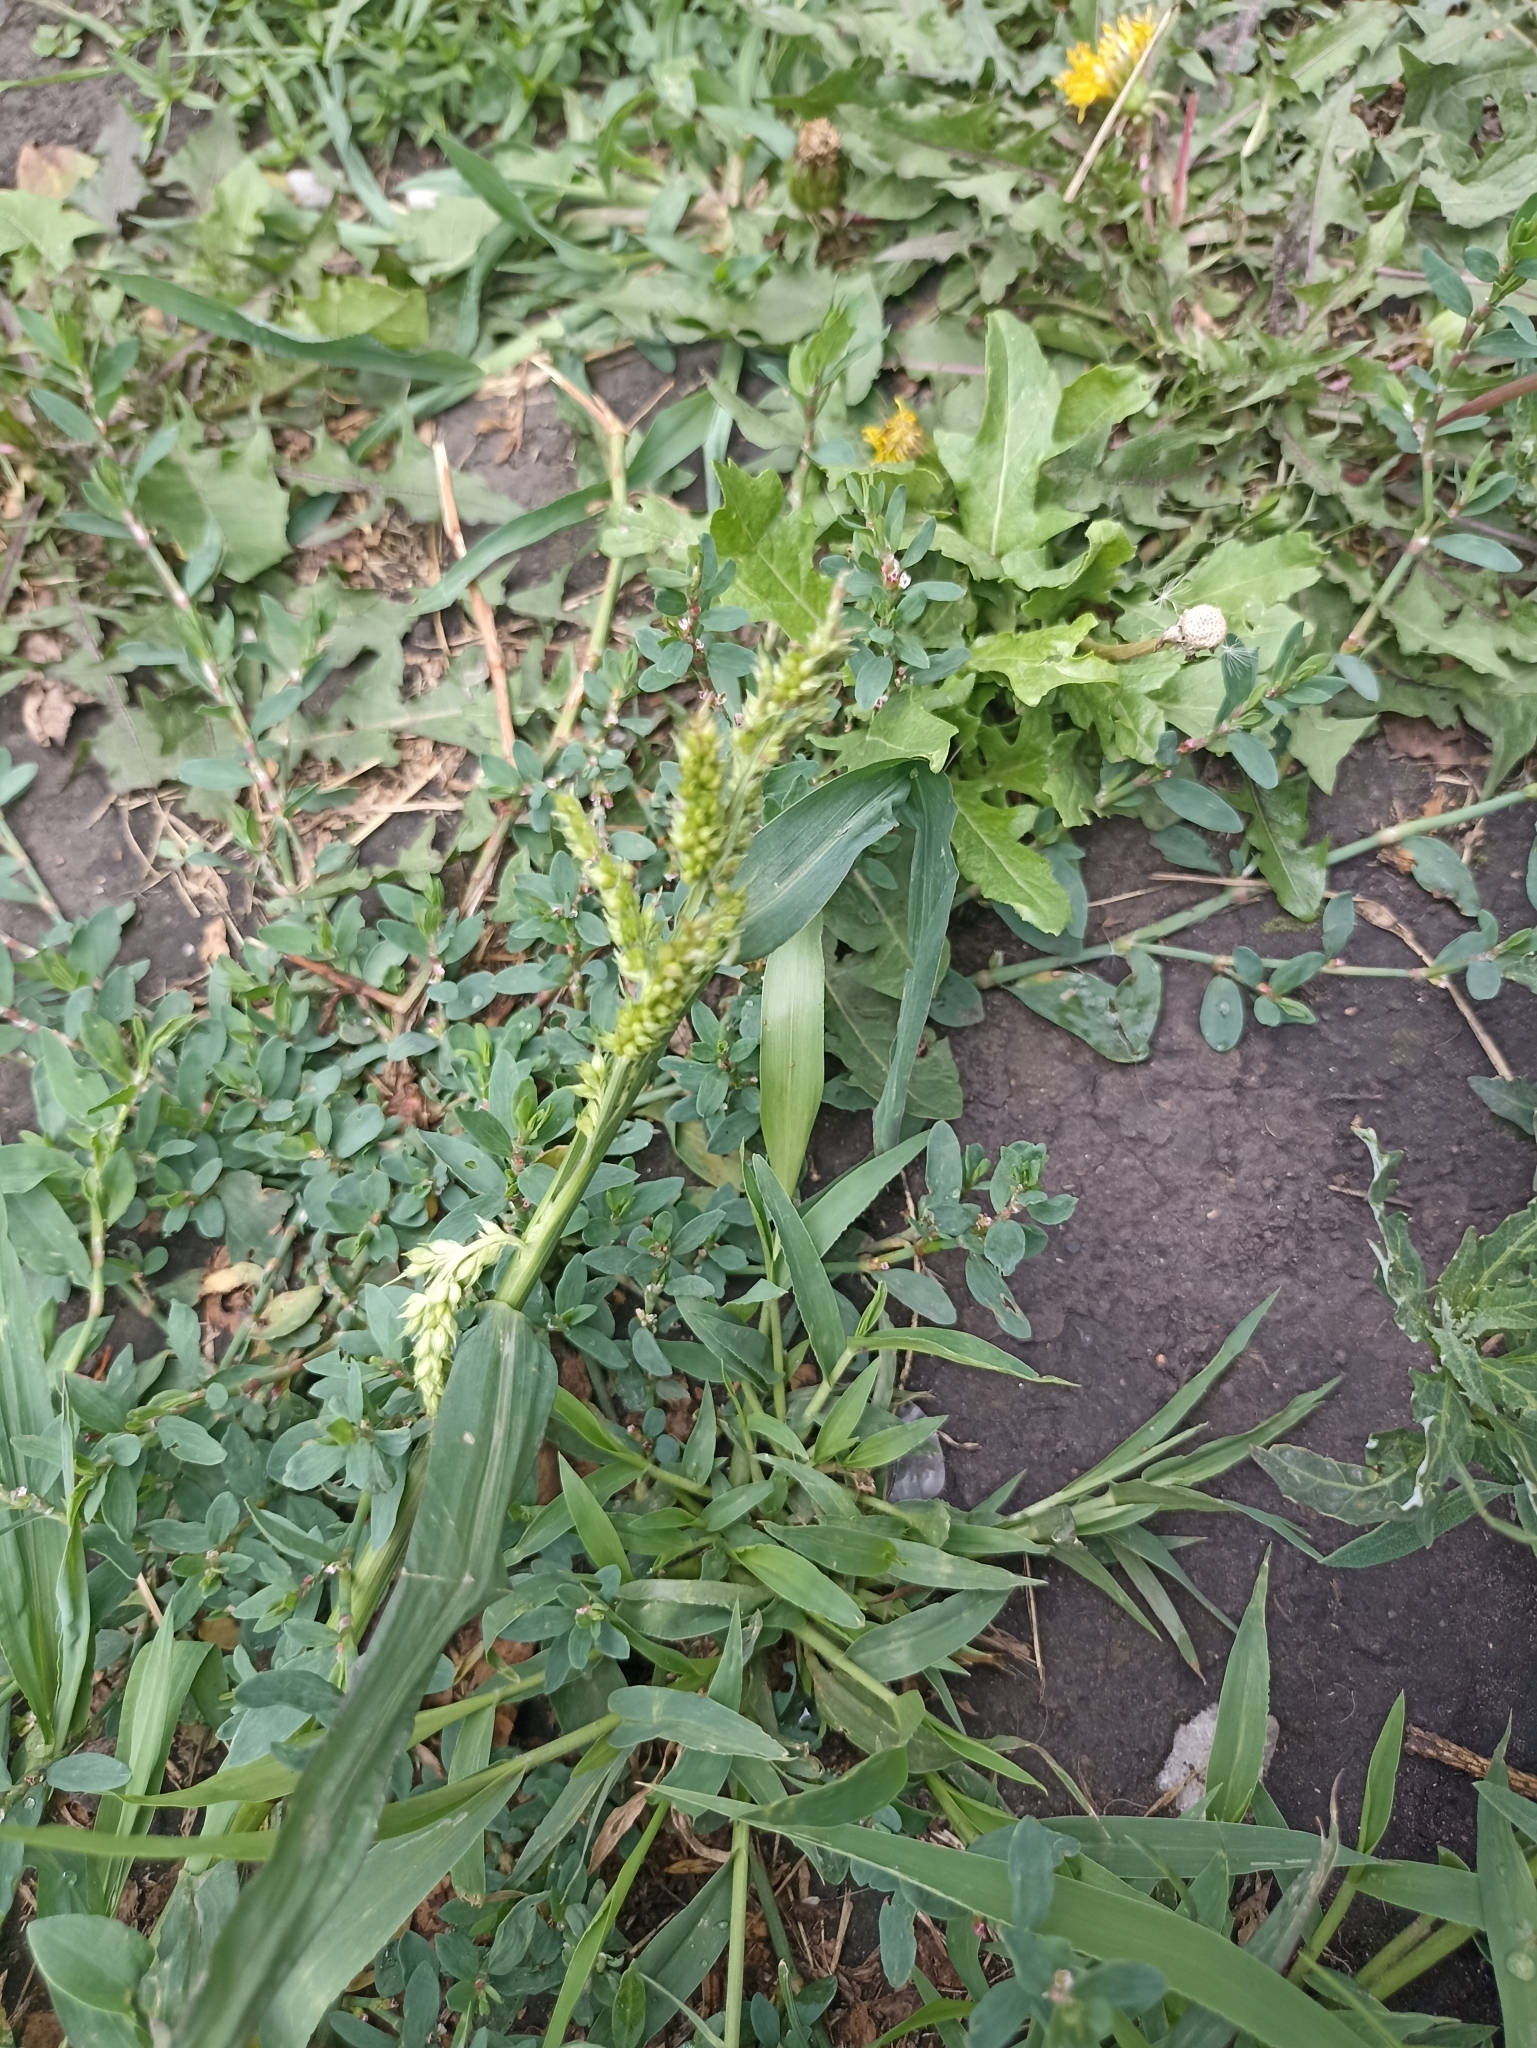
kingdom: Plantae
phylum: Tracheophyta
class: Liliopsida
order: Poales
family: Poaceae
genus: Echinochloa
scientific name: Echinochloa crus-galli
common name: Cockspur
